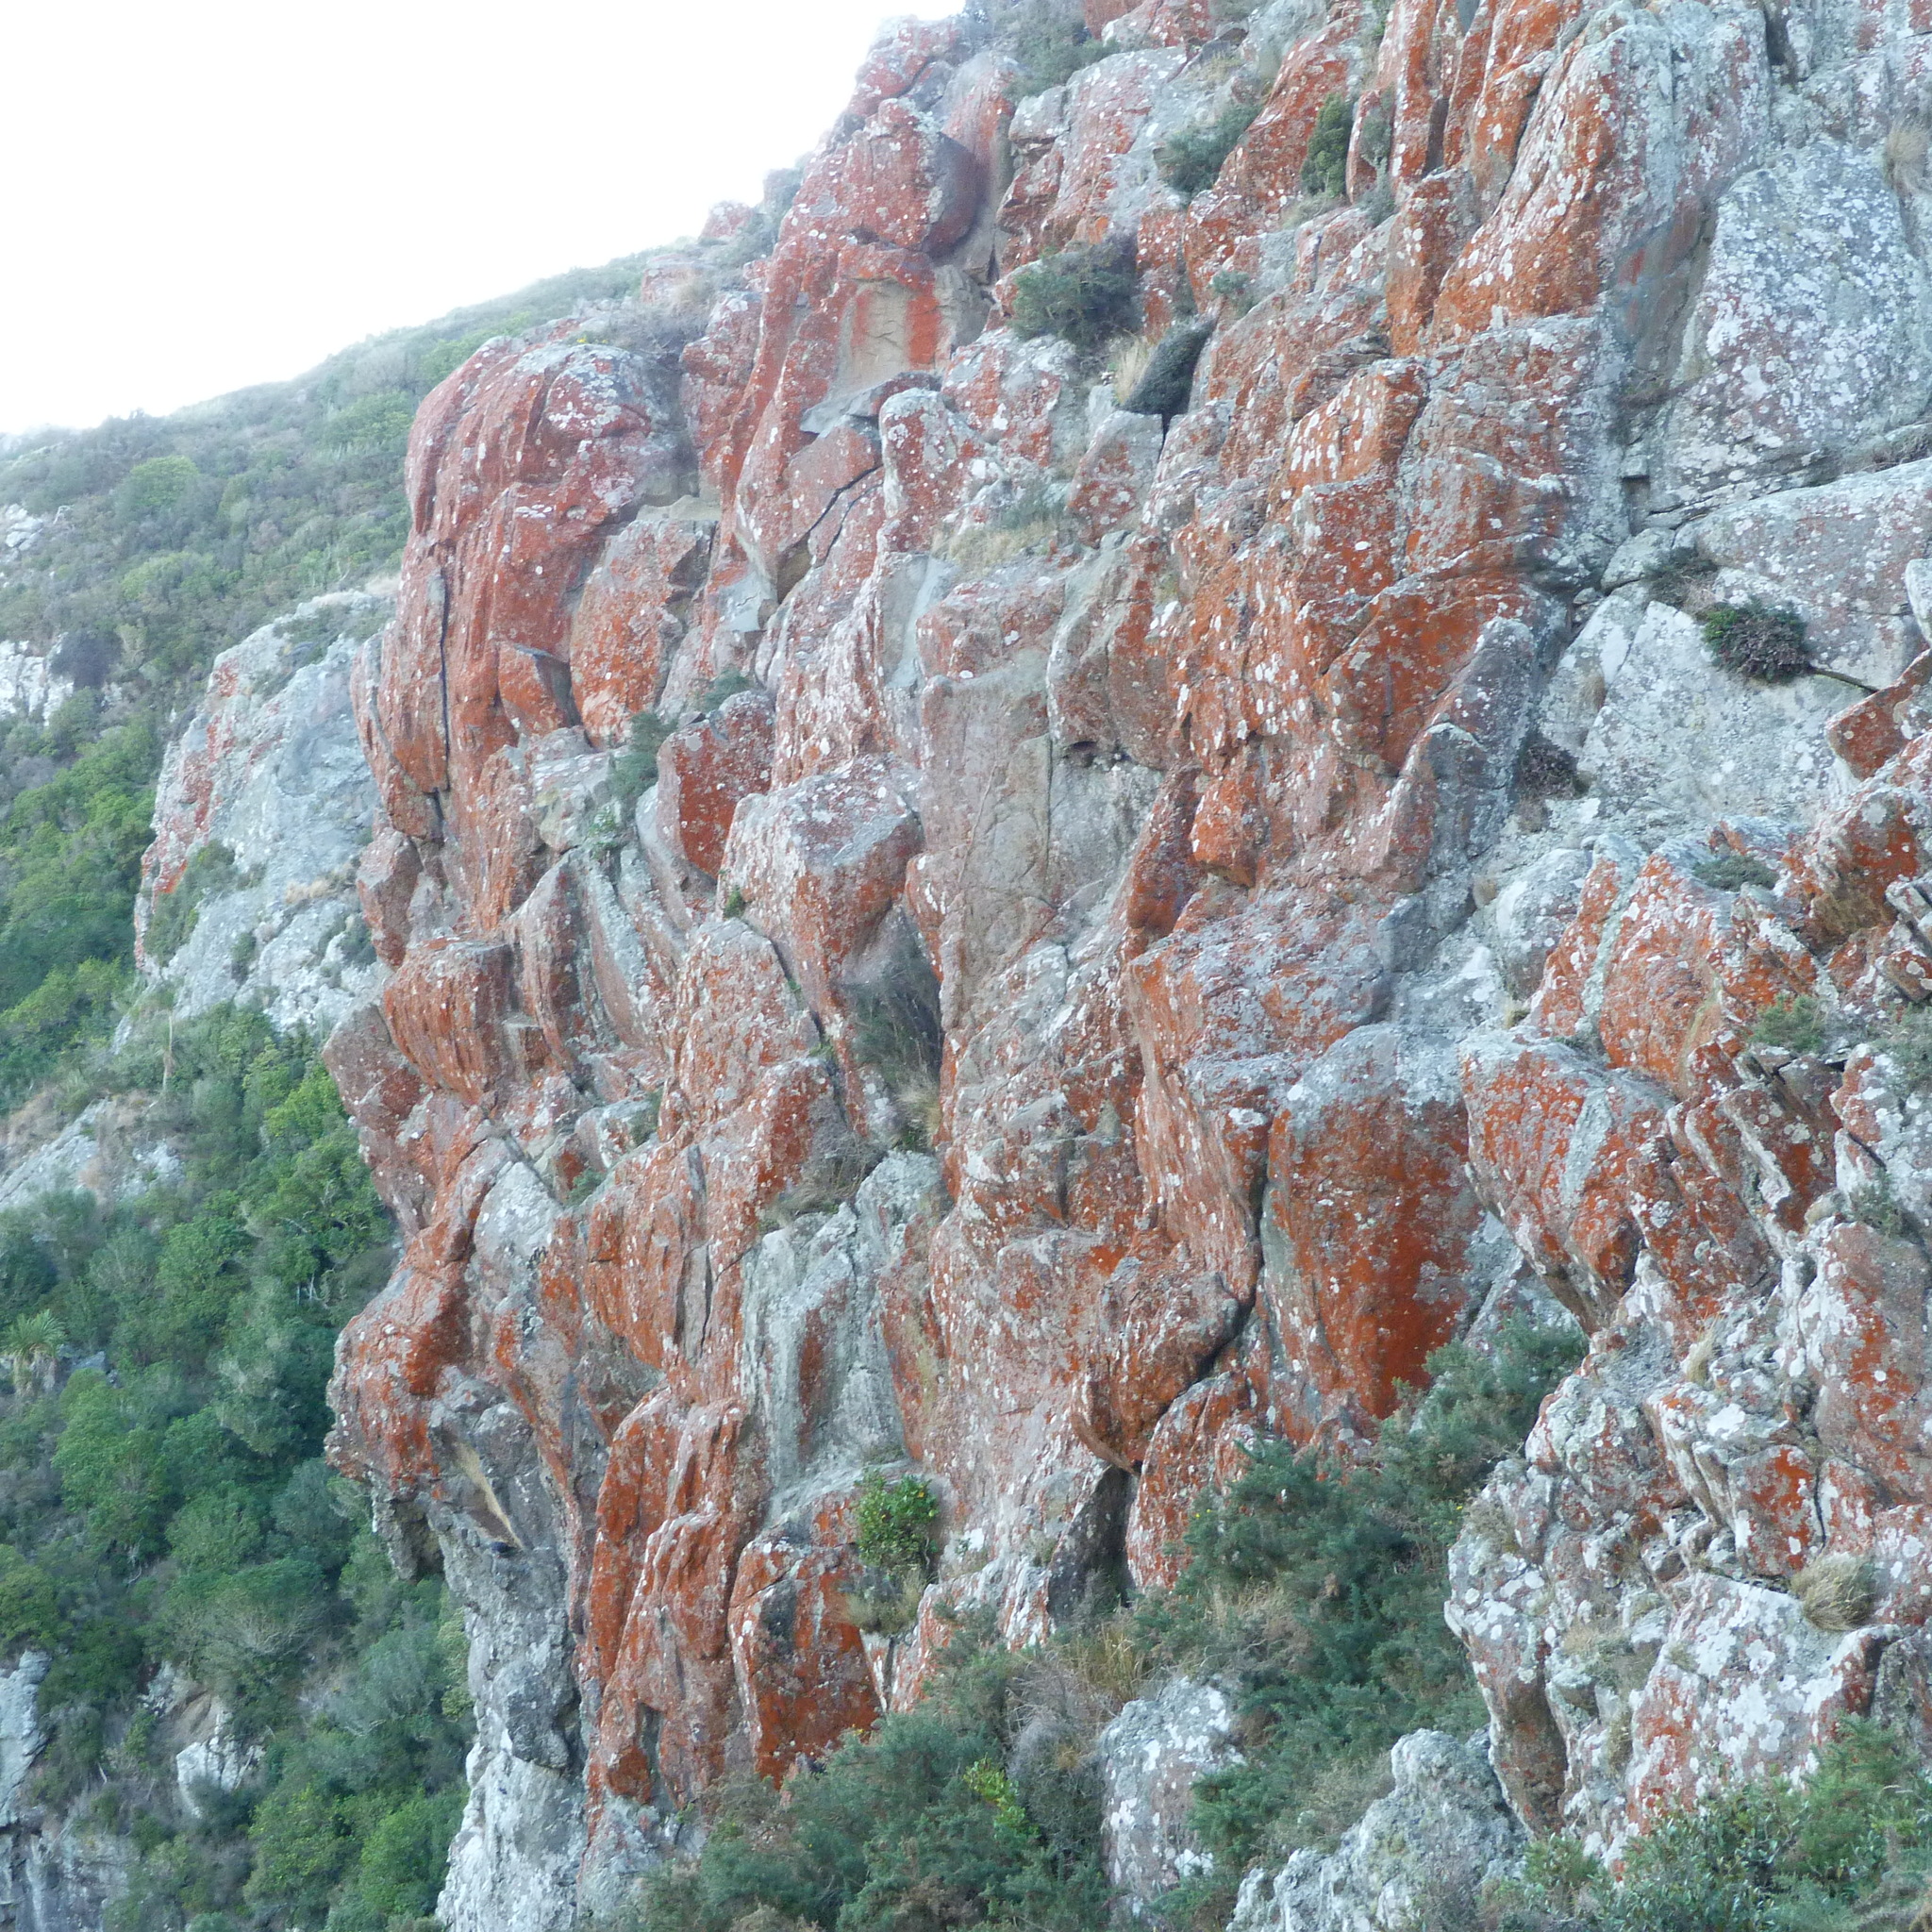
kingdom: Plantae
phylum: Chlorophyta
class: Ulvophyceae
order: Trentepohliales
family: Trentepohliaceae
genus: Trentepohlia
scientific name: Trentepohlia
